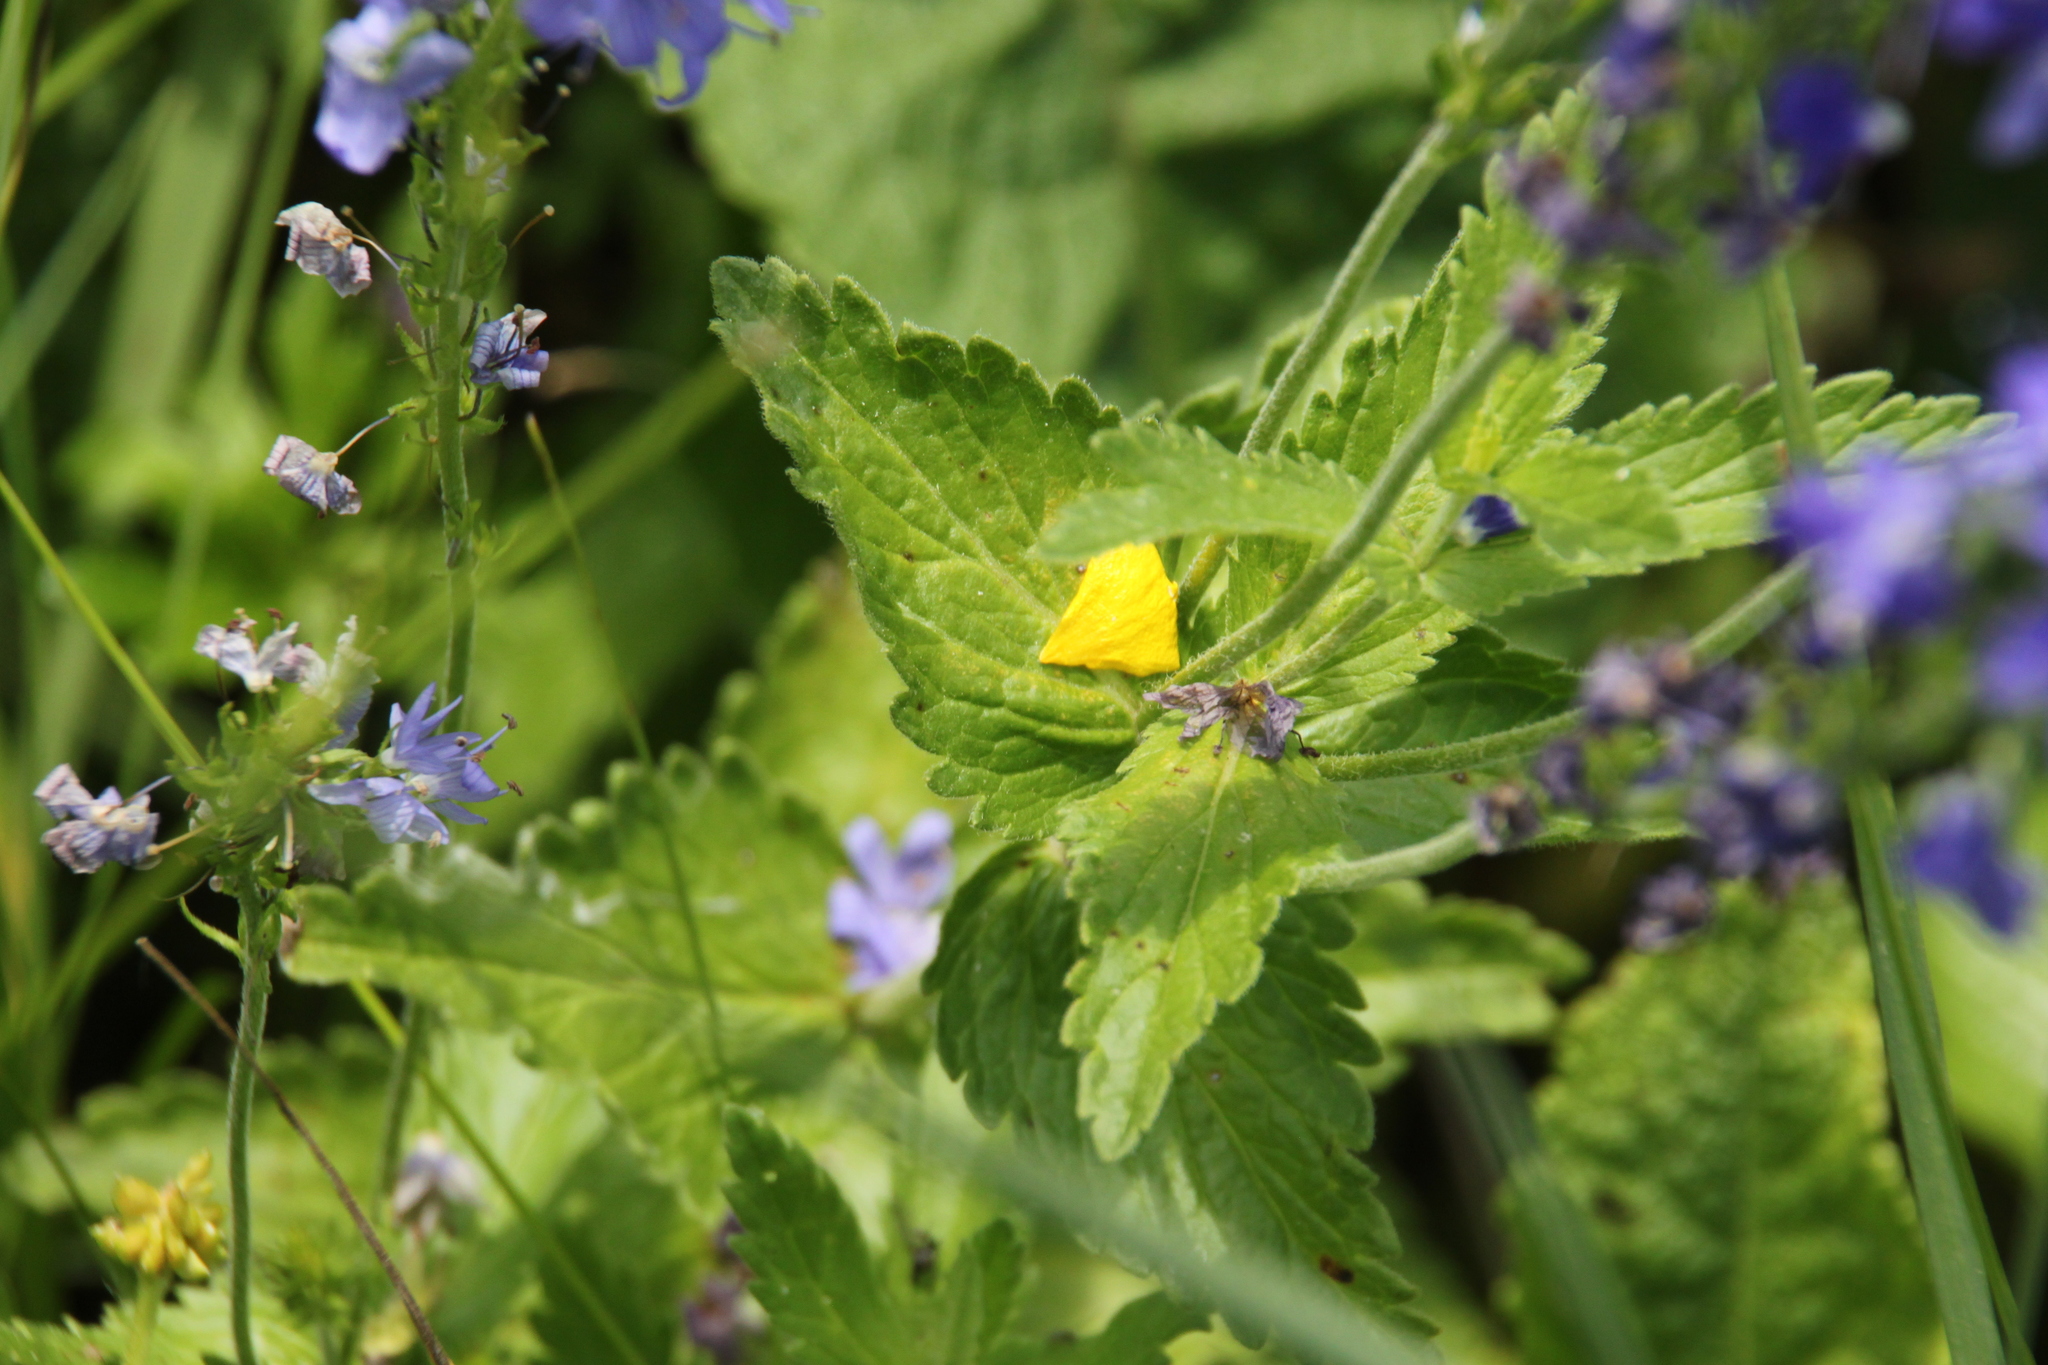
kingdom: Plantae
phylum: Tracheophyta
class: Magnoliopsida
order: Lamiales
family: Plantaginaceae
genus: Veronica
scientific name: Veronica teucrium
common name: Large speedwell
